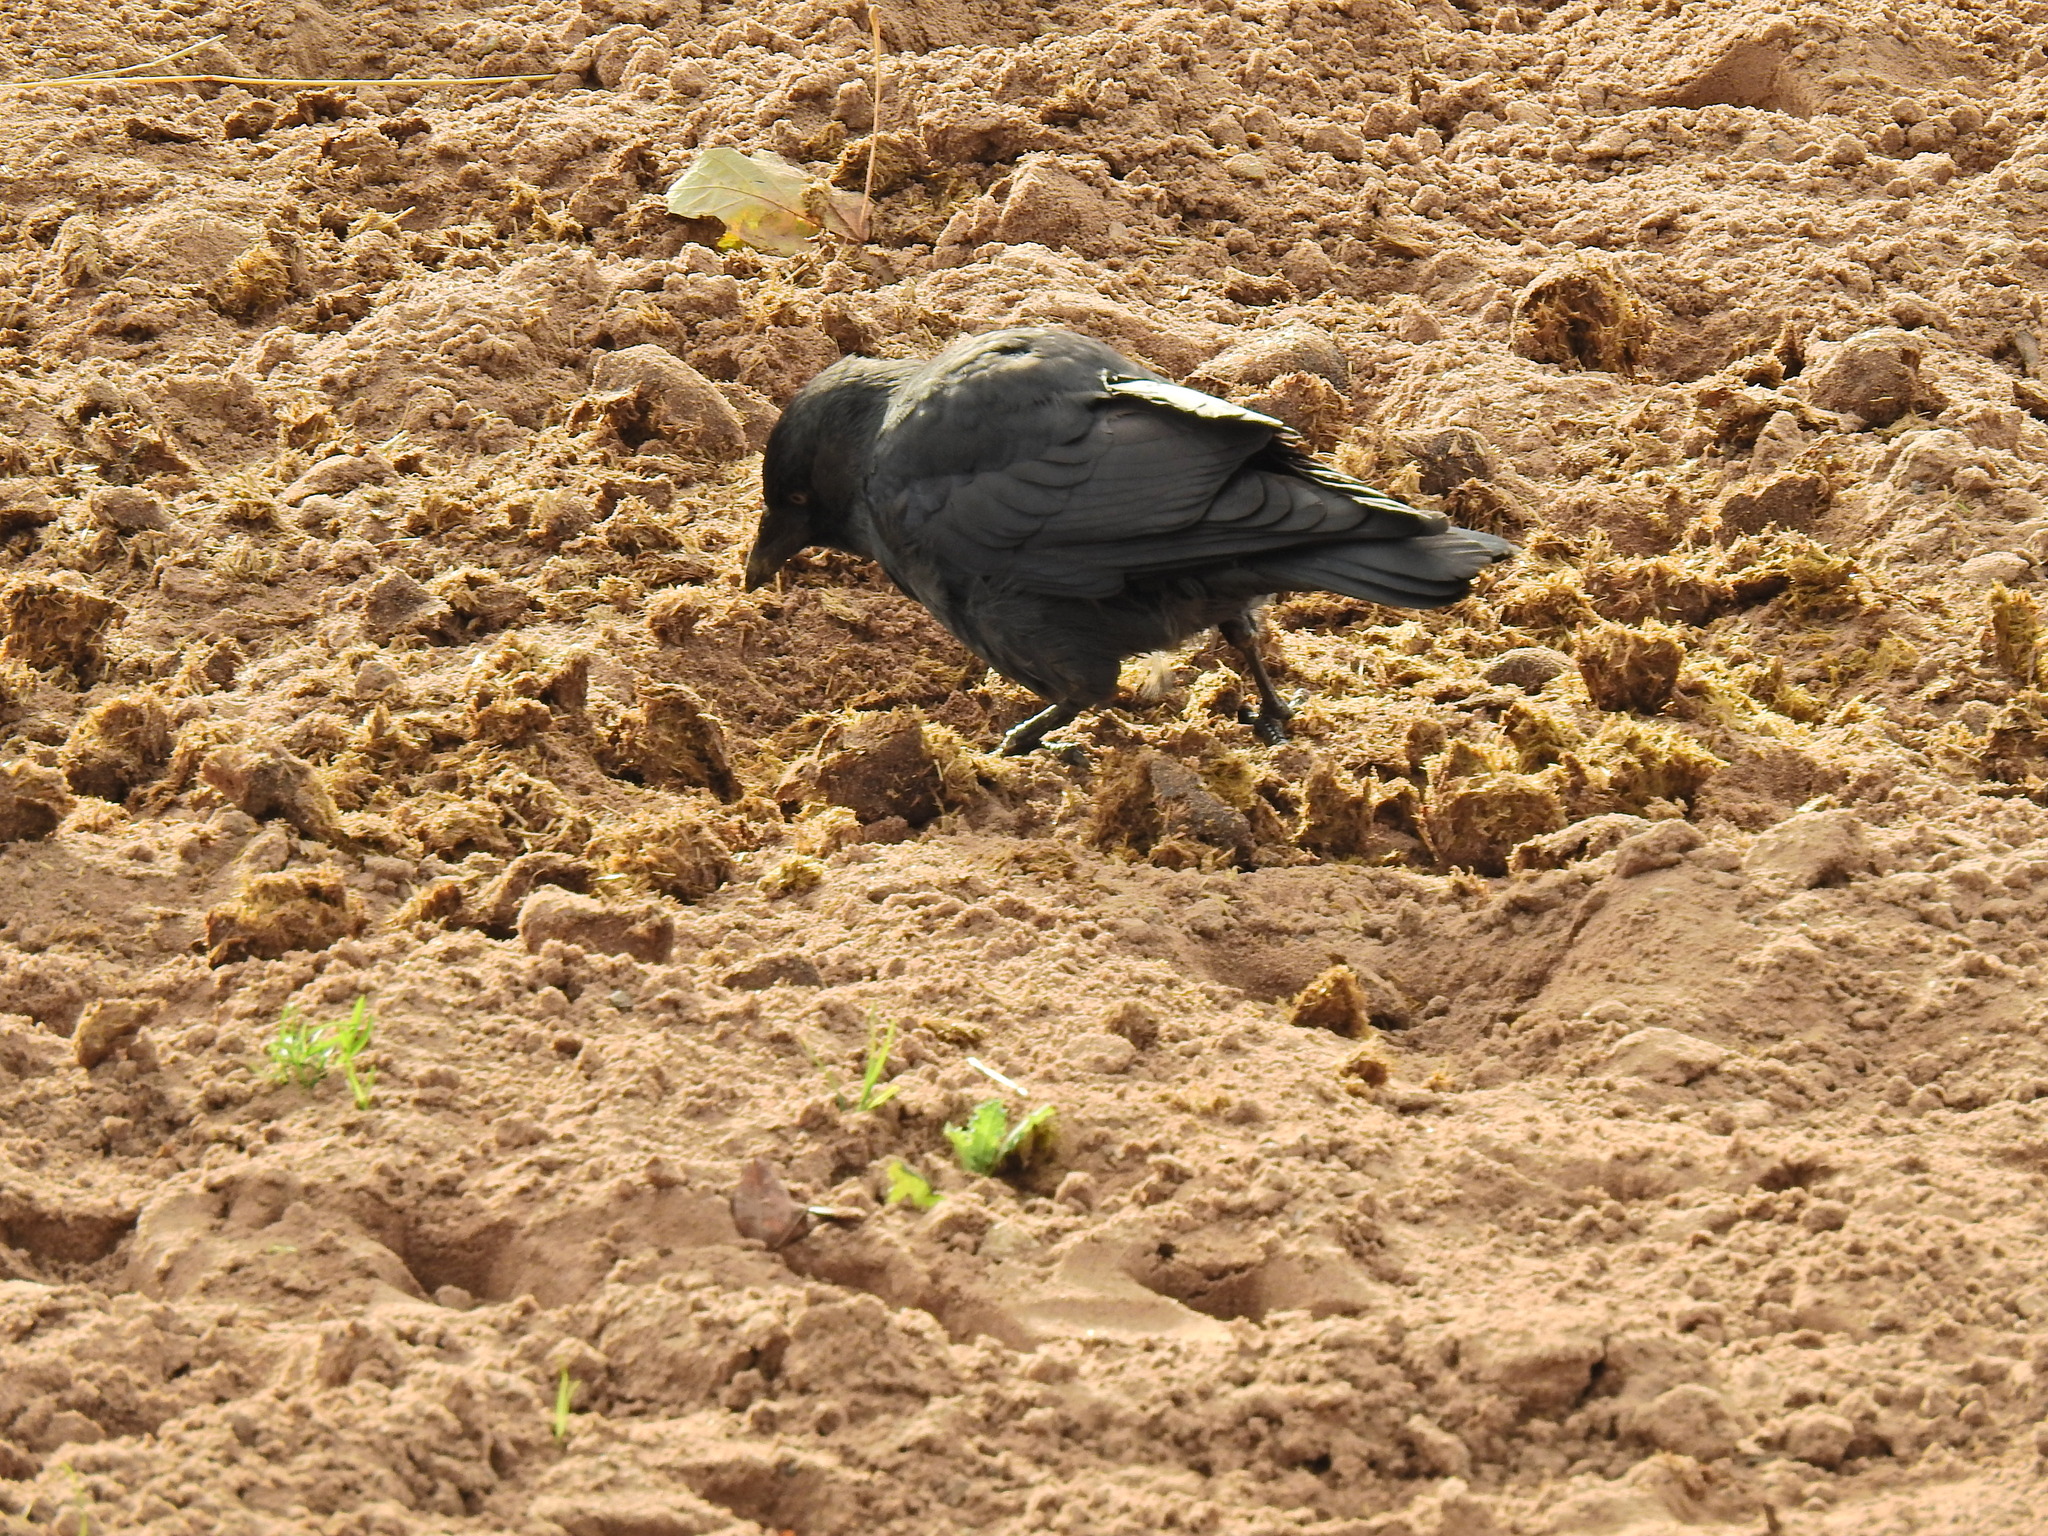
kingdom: Animalia
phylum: Chordata
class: Aves
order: Passeriformes
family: Corvidae
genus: Coloeus
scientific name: Coloeus monedula
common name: Western jackdaw
